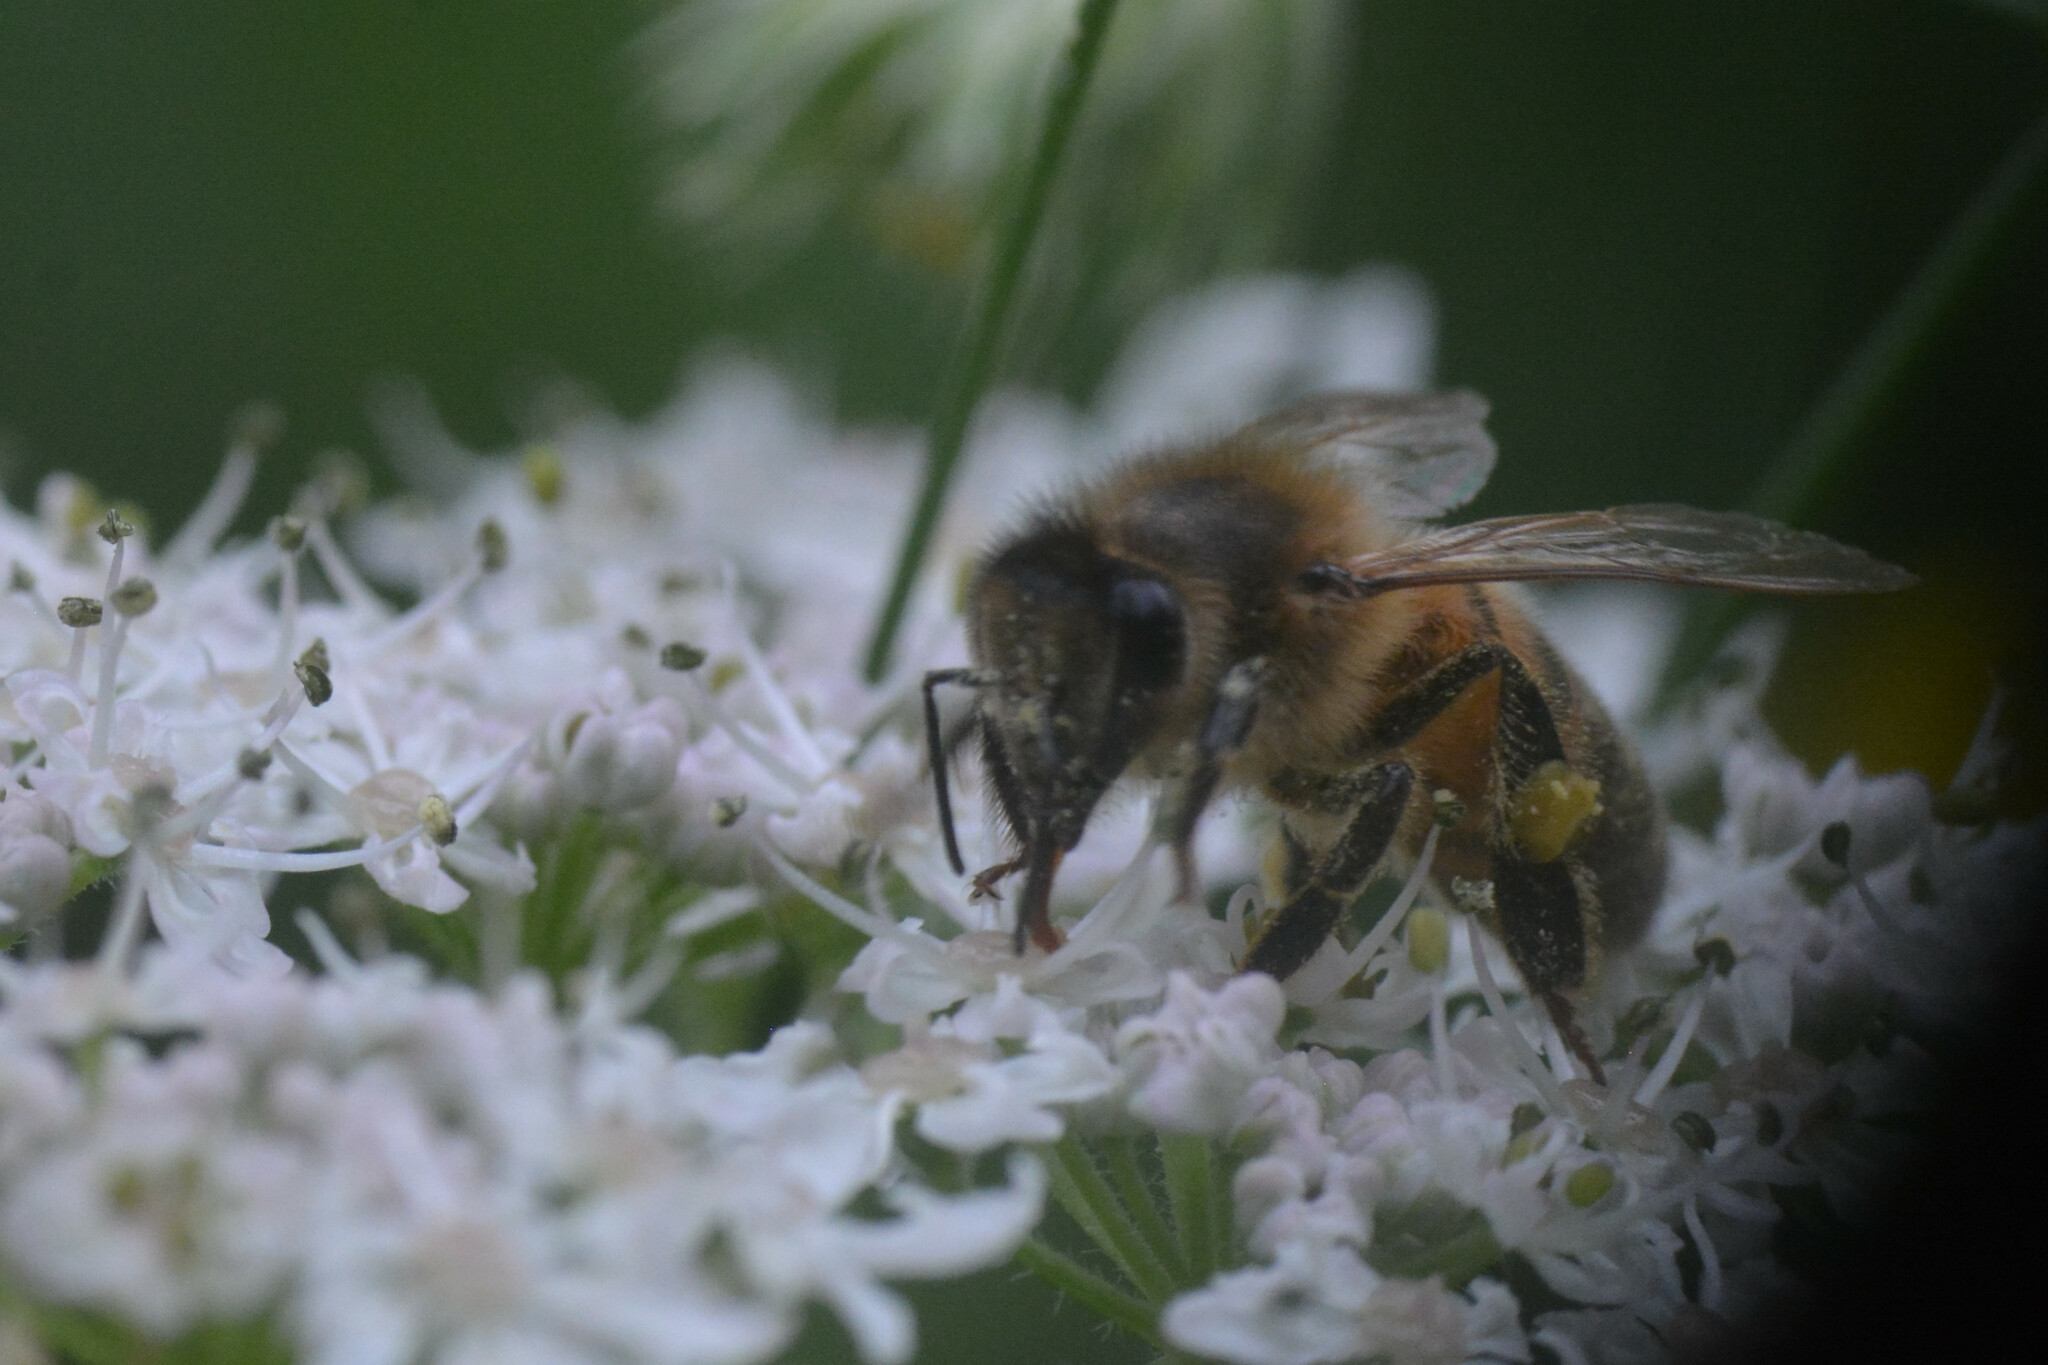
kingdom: Animalia
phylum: Arthropoda
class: Insecta
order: Hymenoptera
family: Apidae
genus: Apis
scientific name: Apis mellifera
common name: Honey bee
